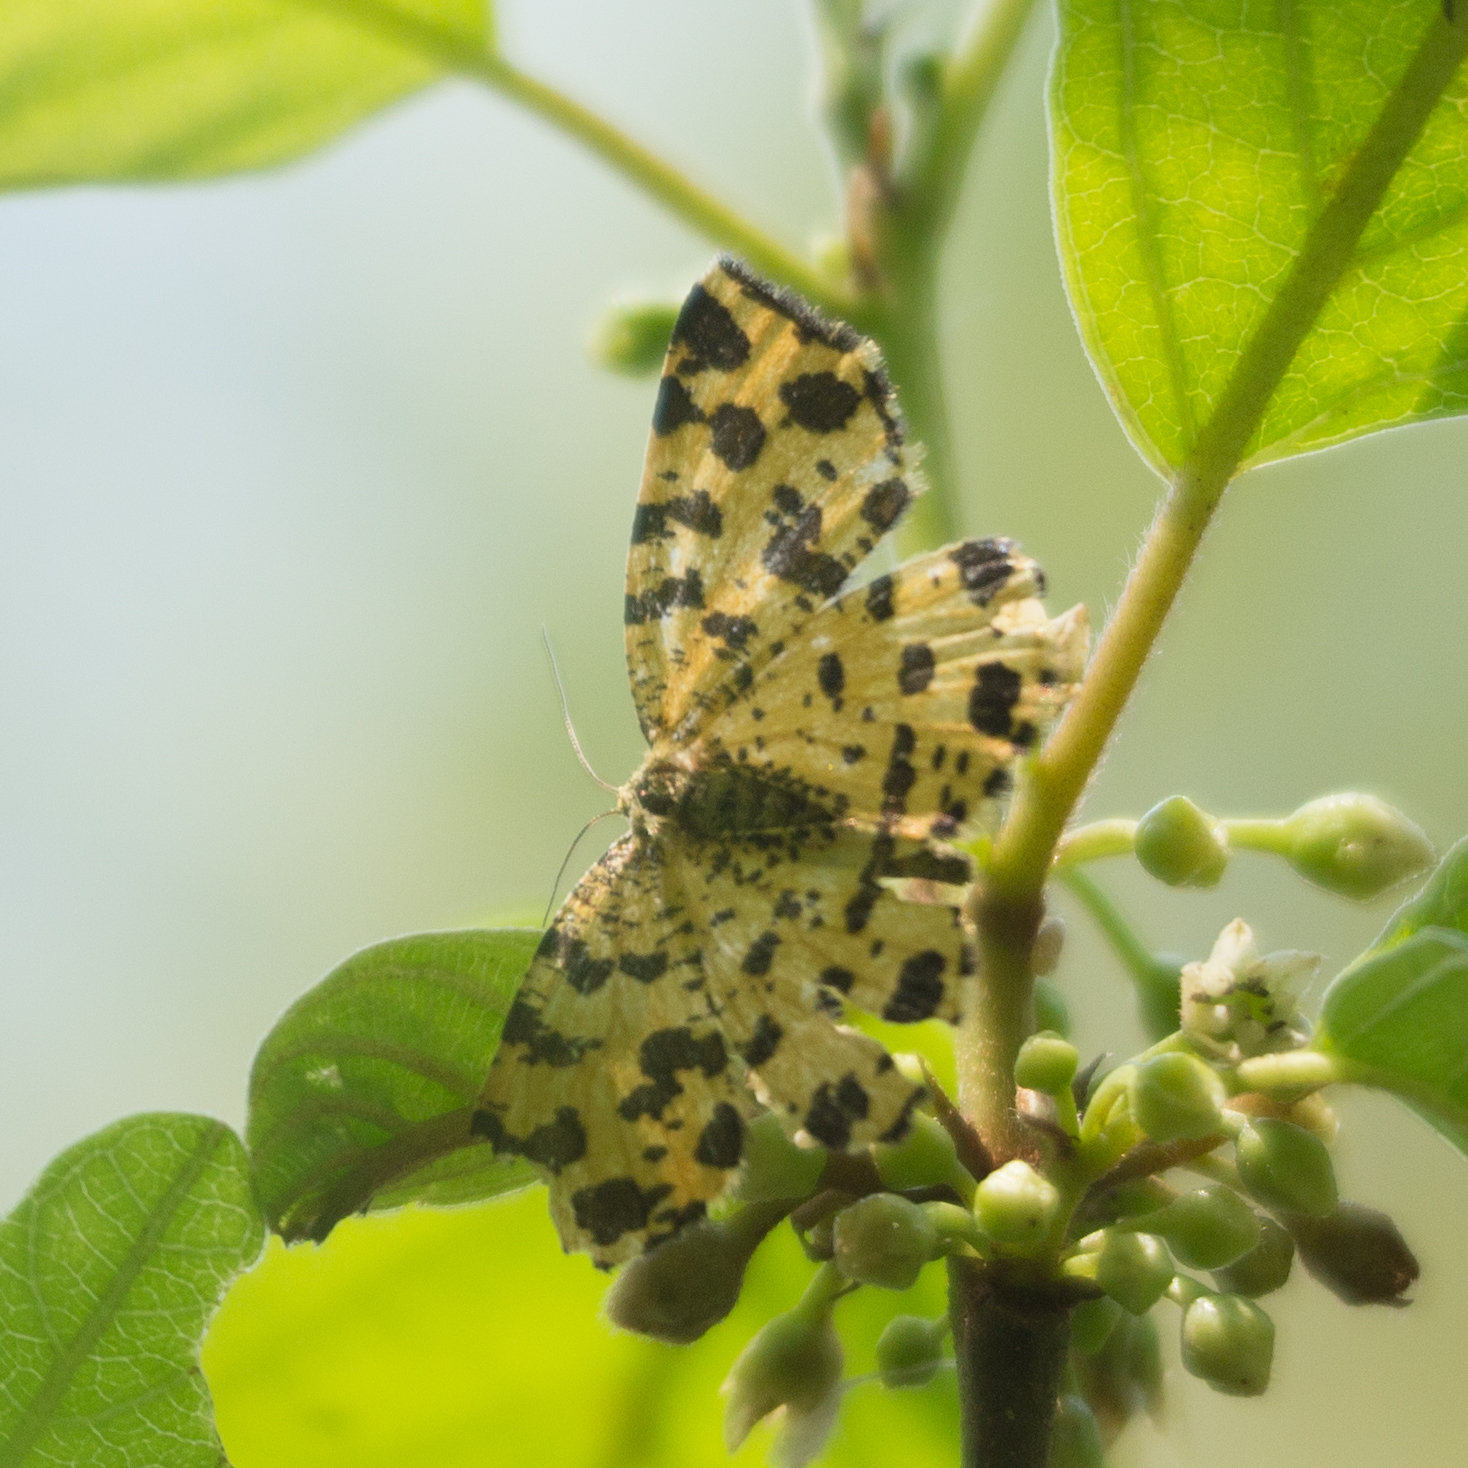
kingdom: Animalia
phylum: Arthropoda
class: Insecta
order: Lepidoptera
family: Geometridae
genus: Pseudopanthera
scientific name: Pseudopanthera macularia
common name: Speckled yellow
